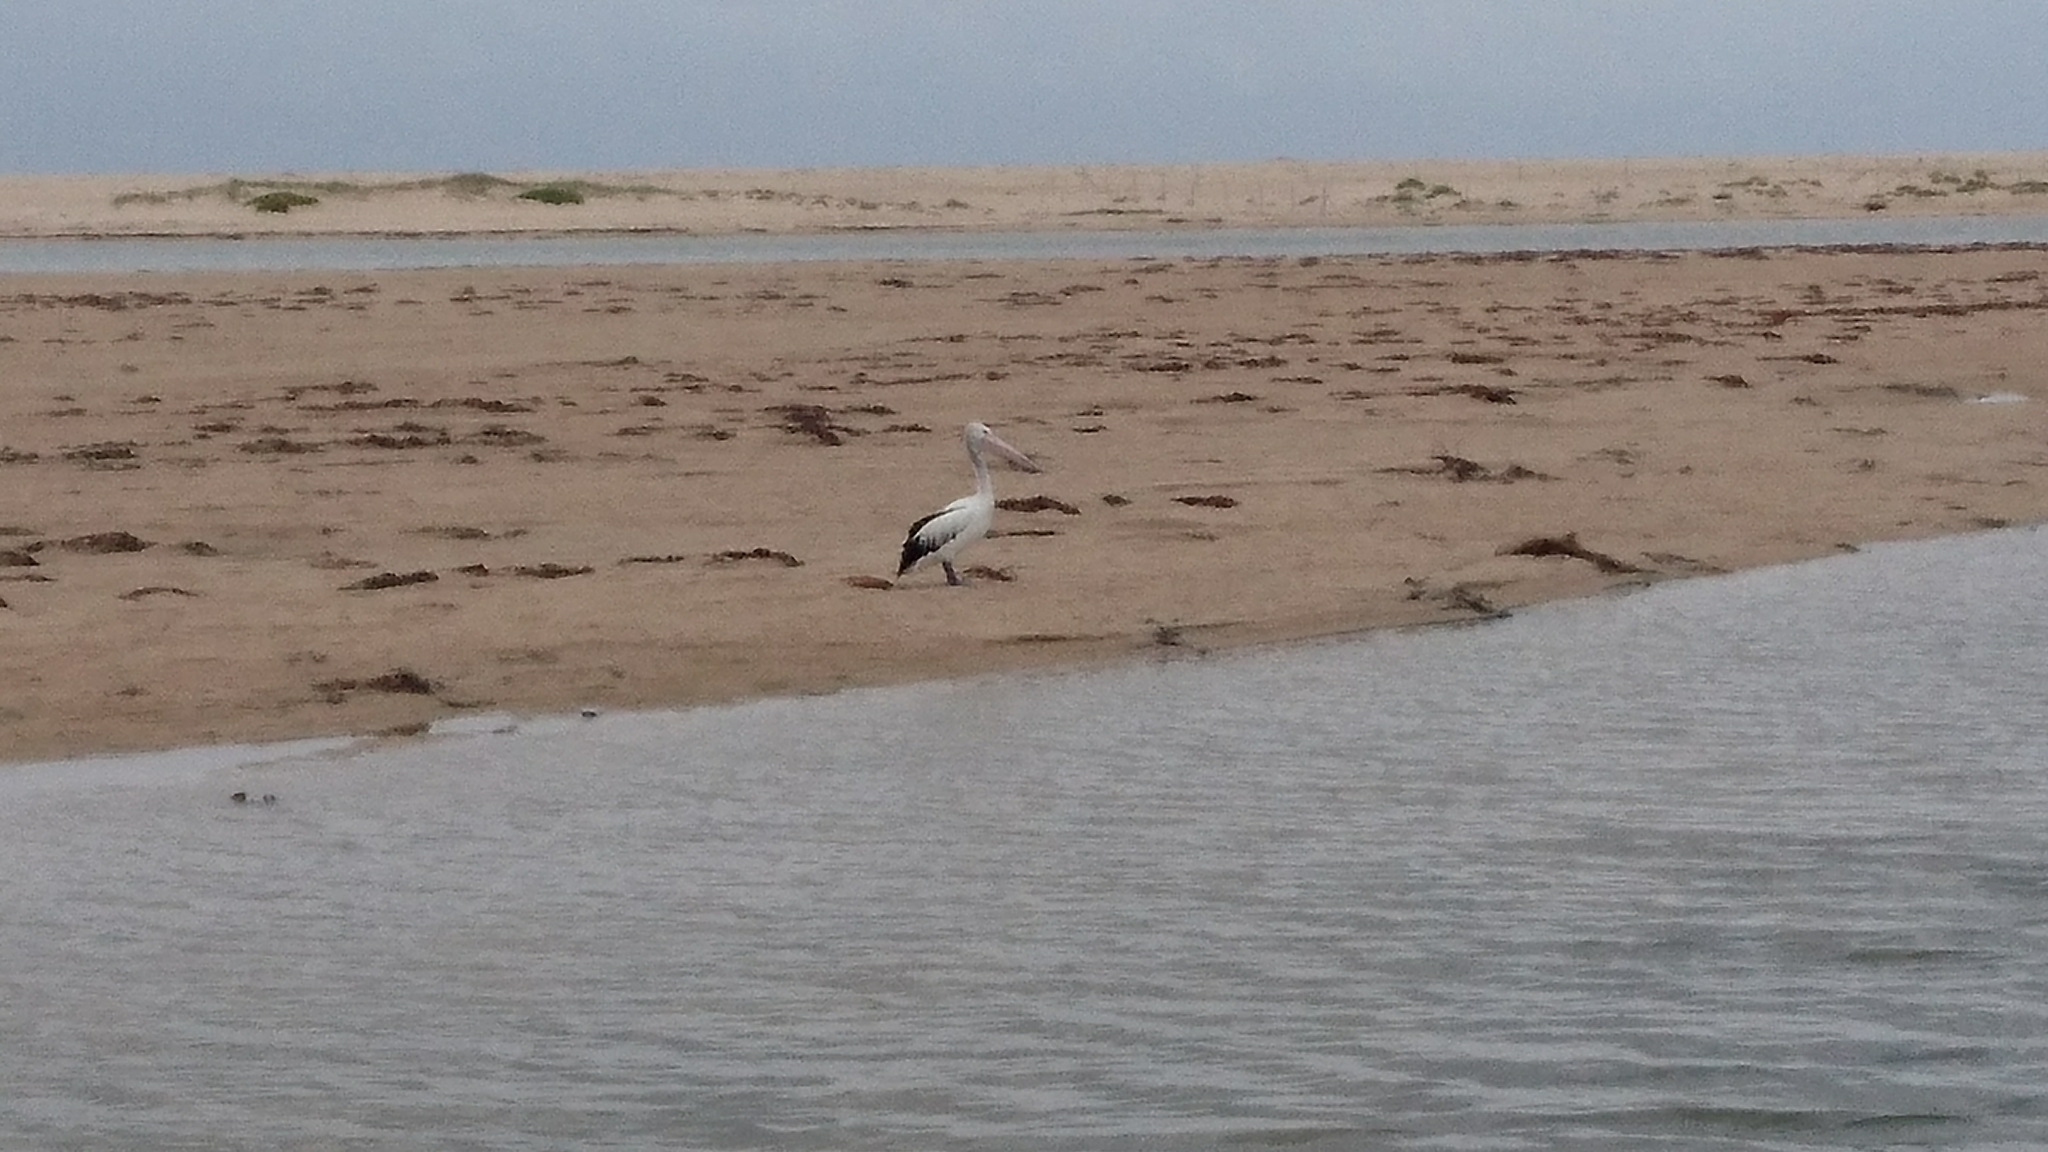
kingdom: Animalia
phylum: Chordata
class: Aves
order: Pelecaniformes
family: Pelecanidae
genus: Pelecanus
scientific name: Pelecanus conspicillatus
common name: Australian pelican
